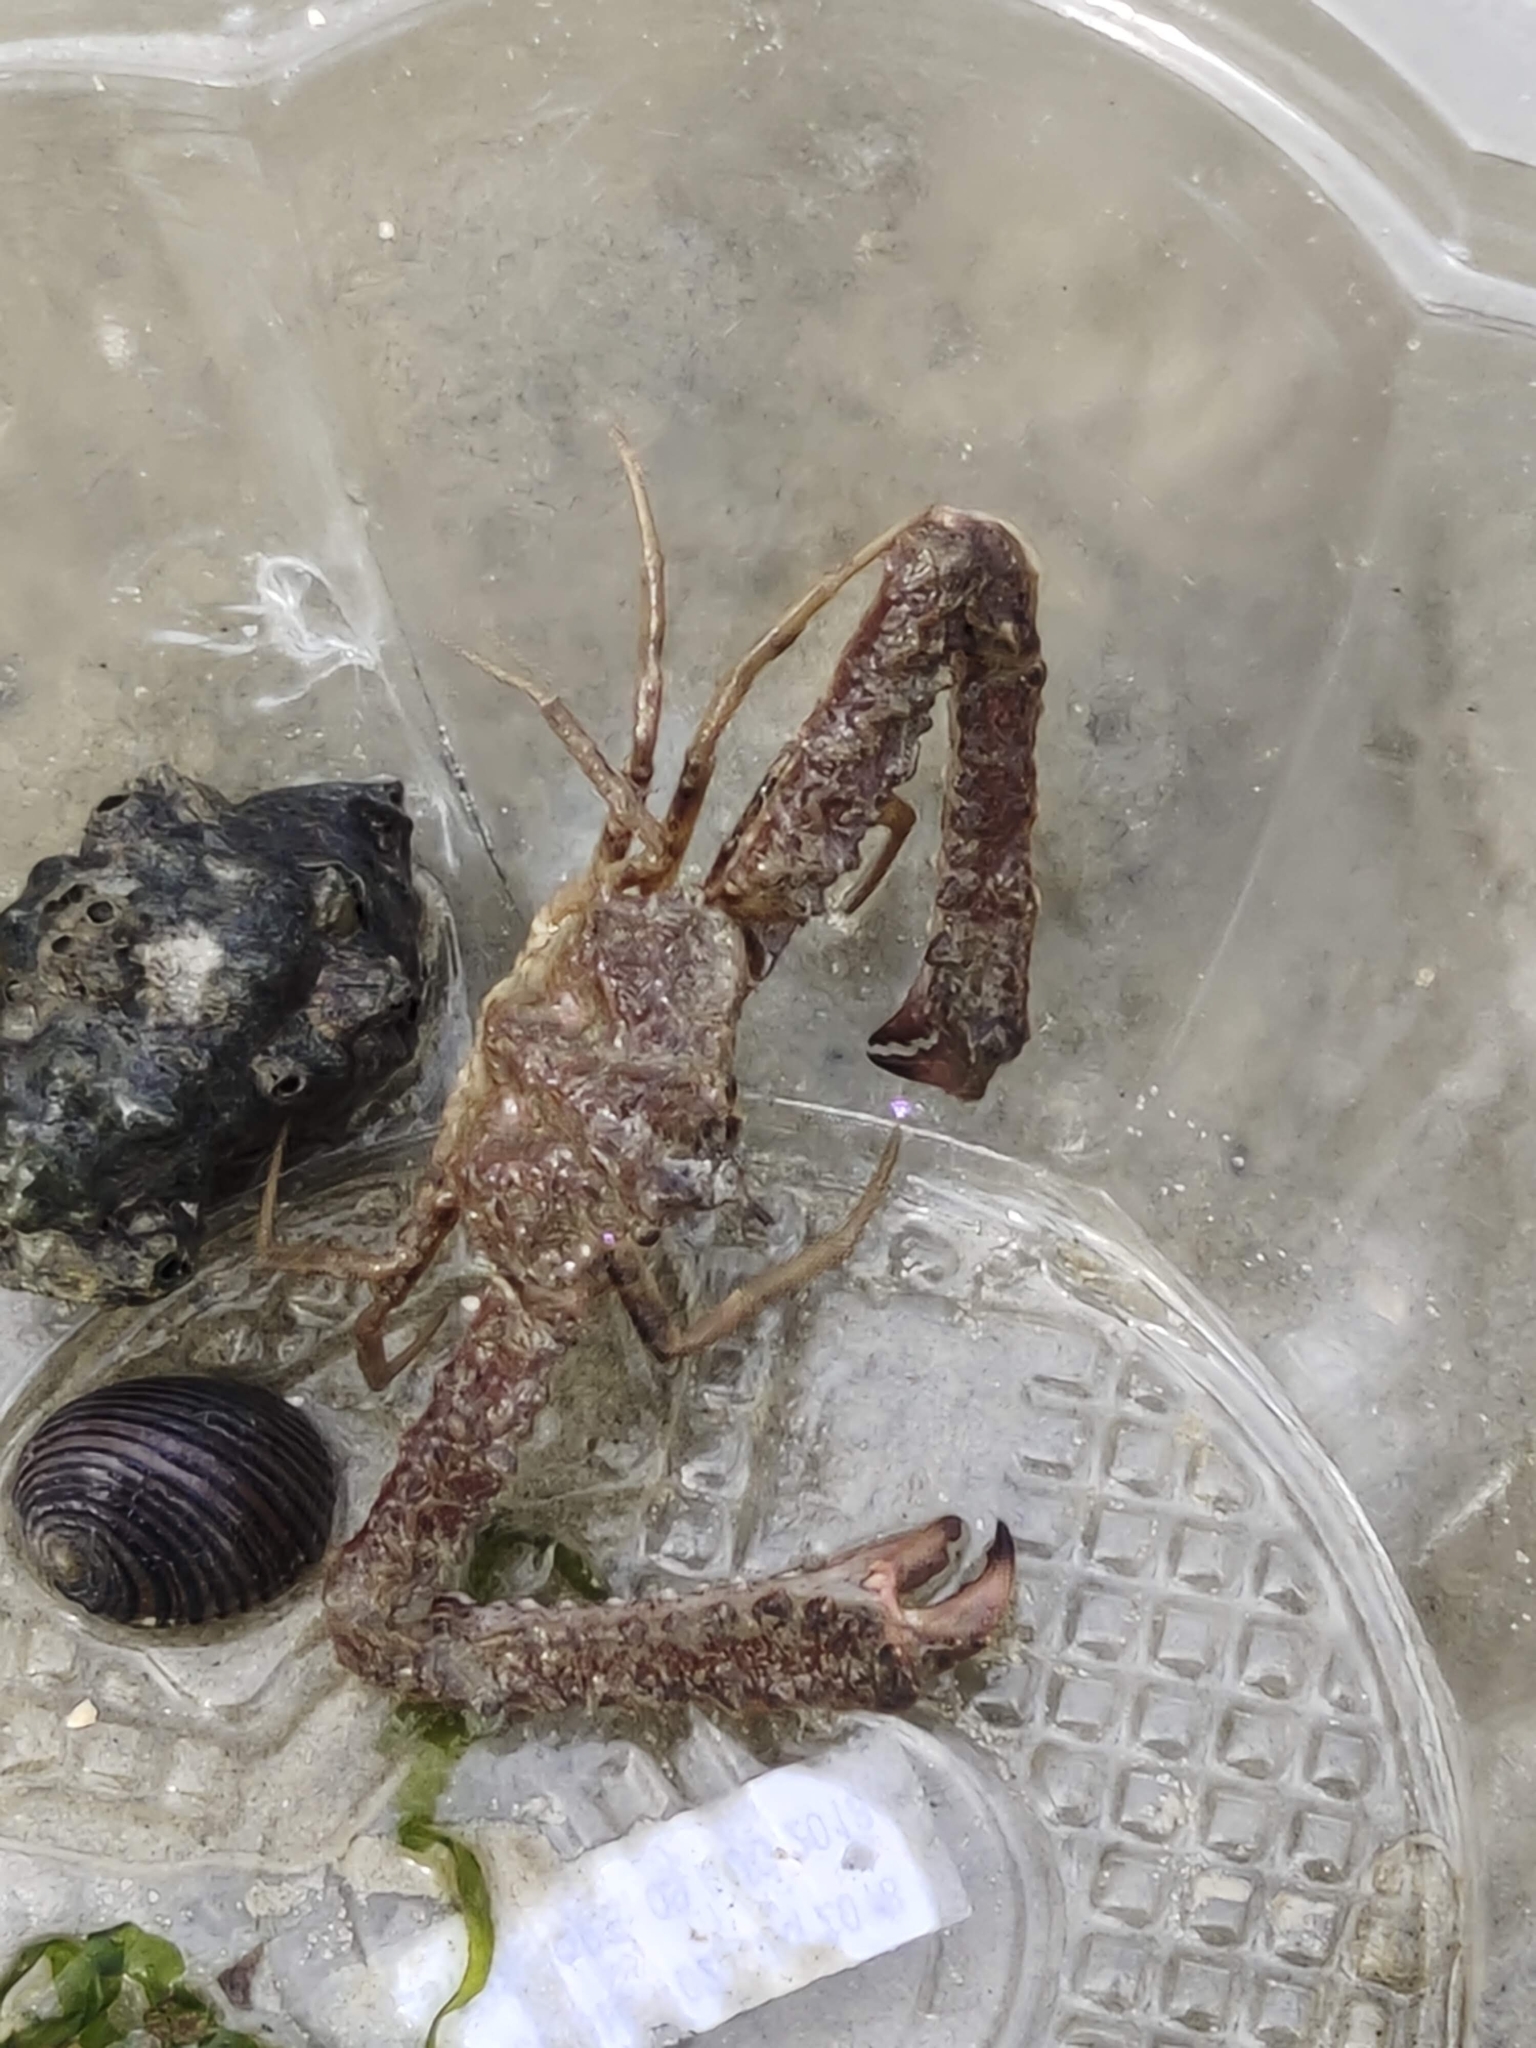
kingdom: Animalia
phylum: Arthropoda
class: Malacostraca
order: Decapoda
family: Parthenopidae
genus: Rhinolambrus
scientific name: Rhinolambrus pelagicus
